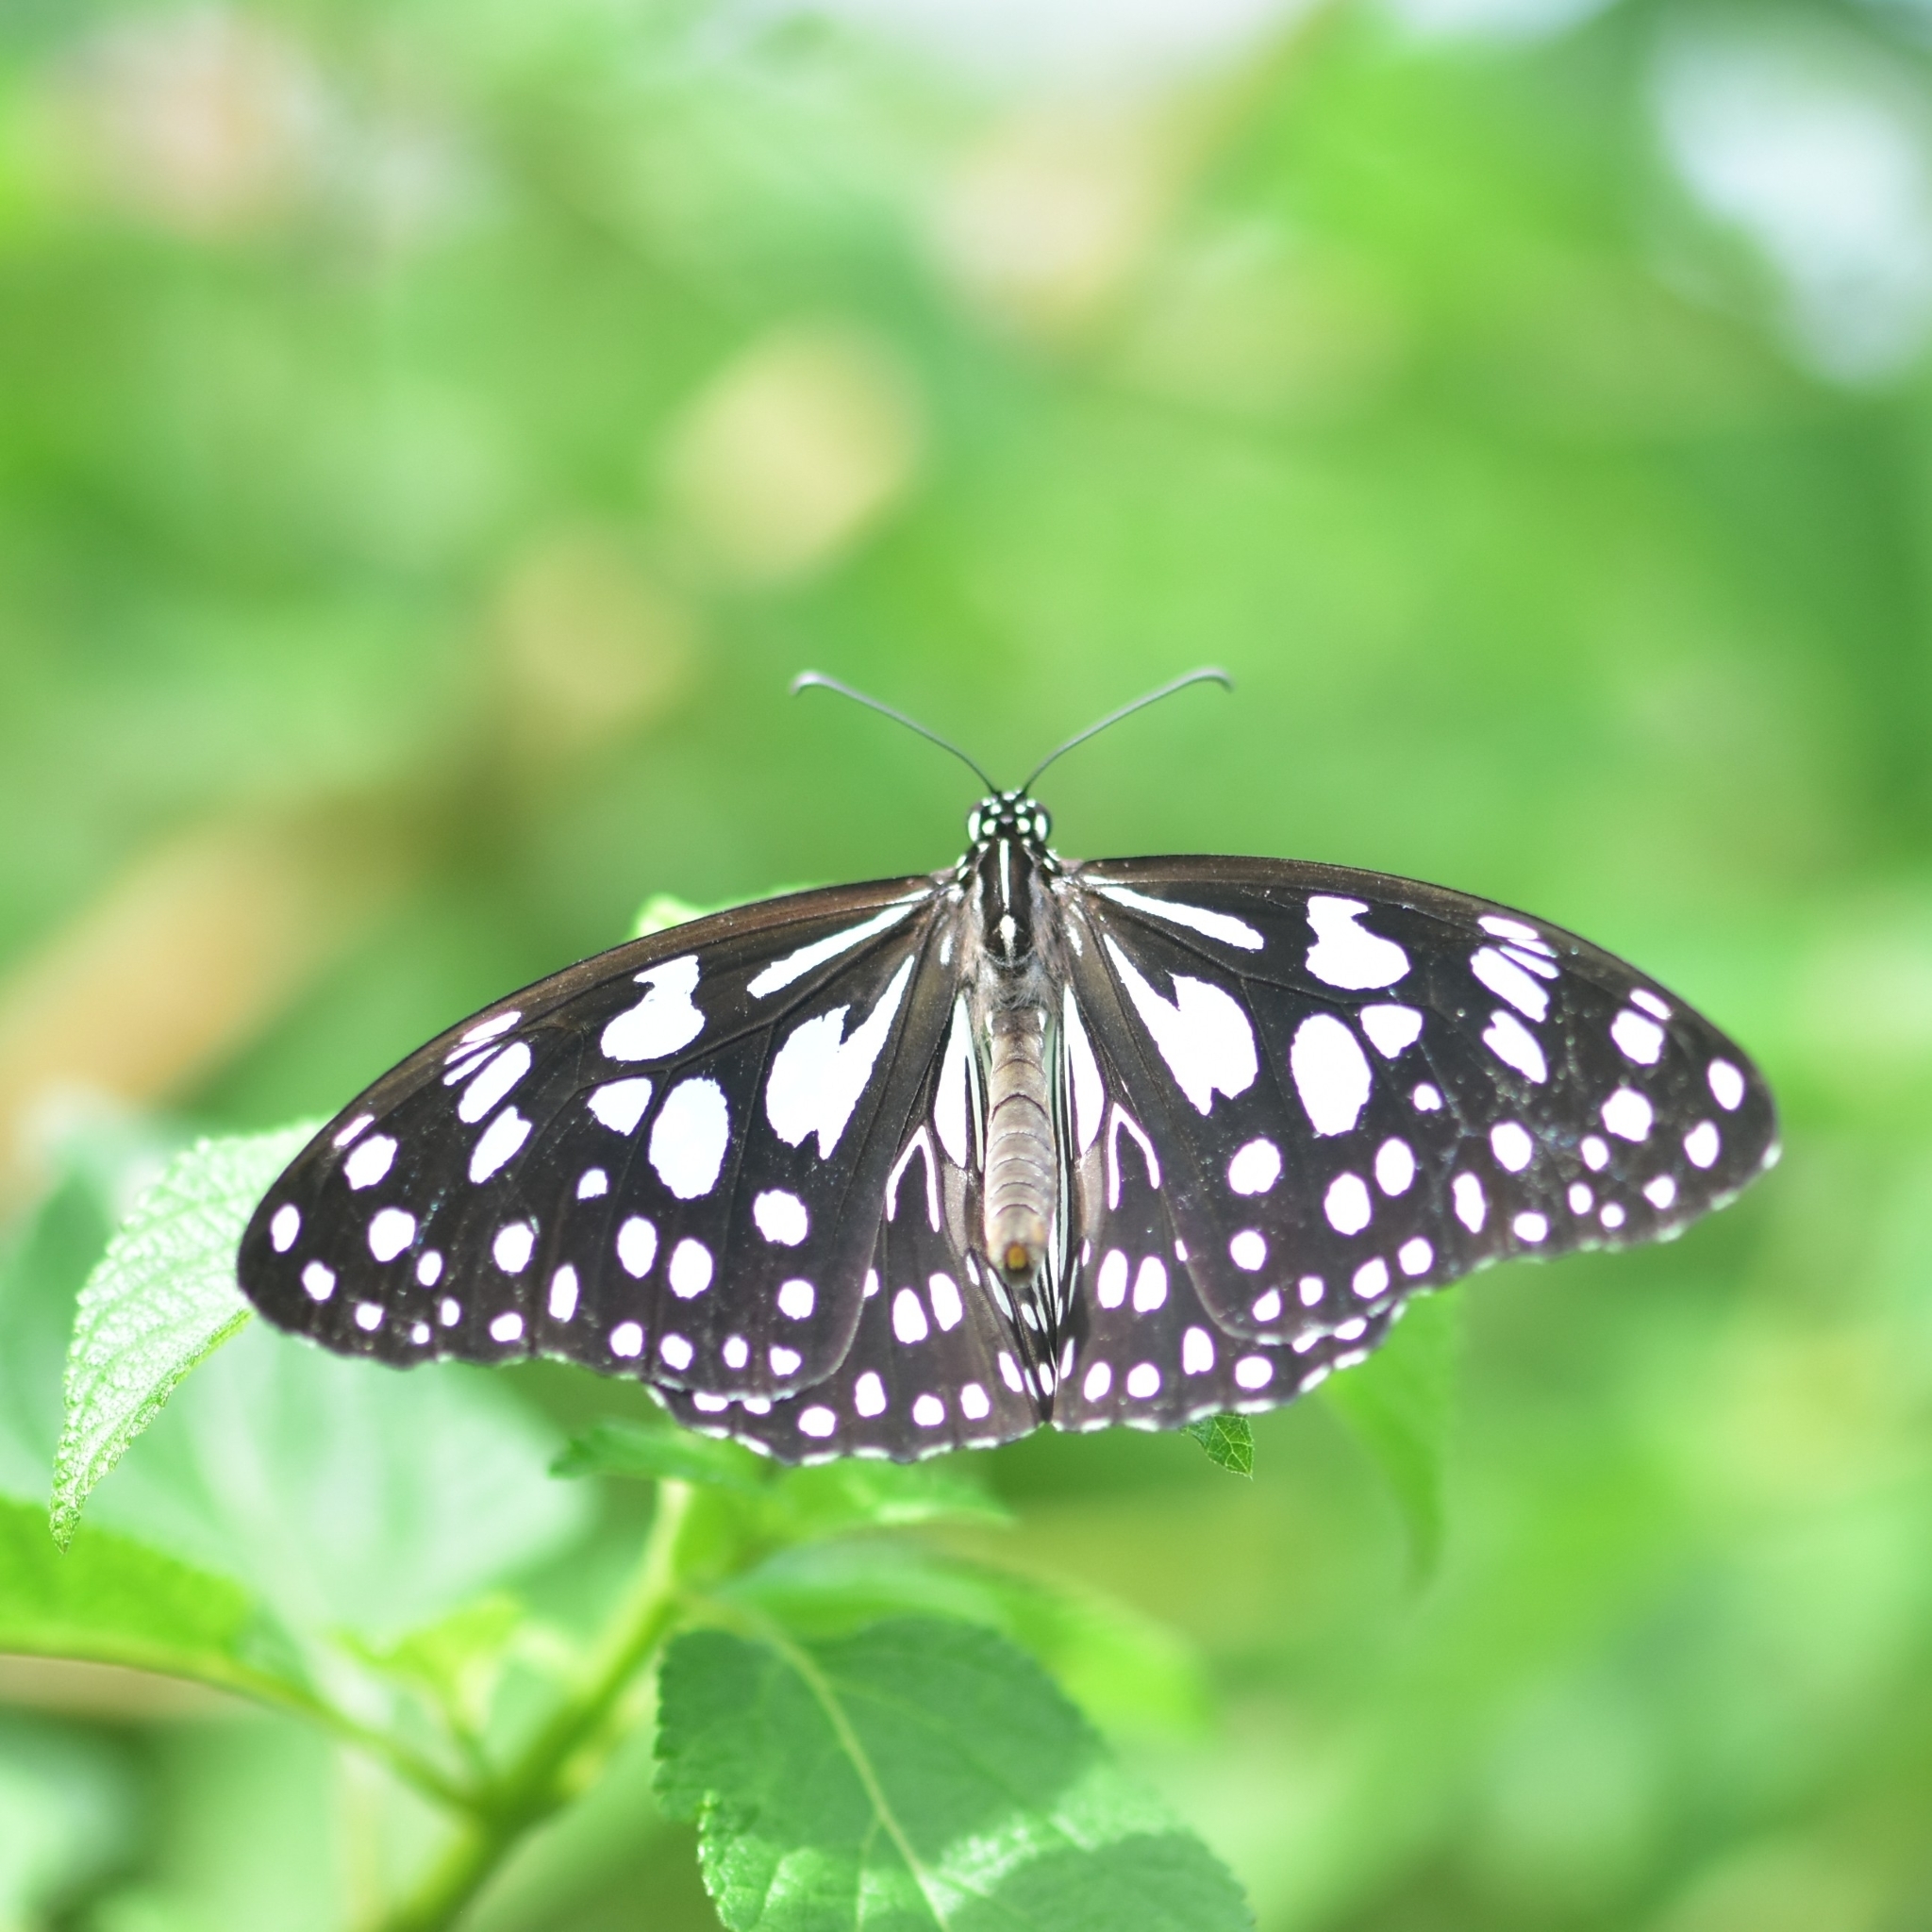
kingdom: Animalia
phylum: Arthropoda
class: Insecta
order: Lepidoptera
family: Nymphalidae
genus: Tirumala
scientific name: Tirumala limniace
